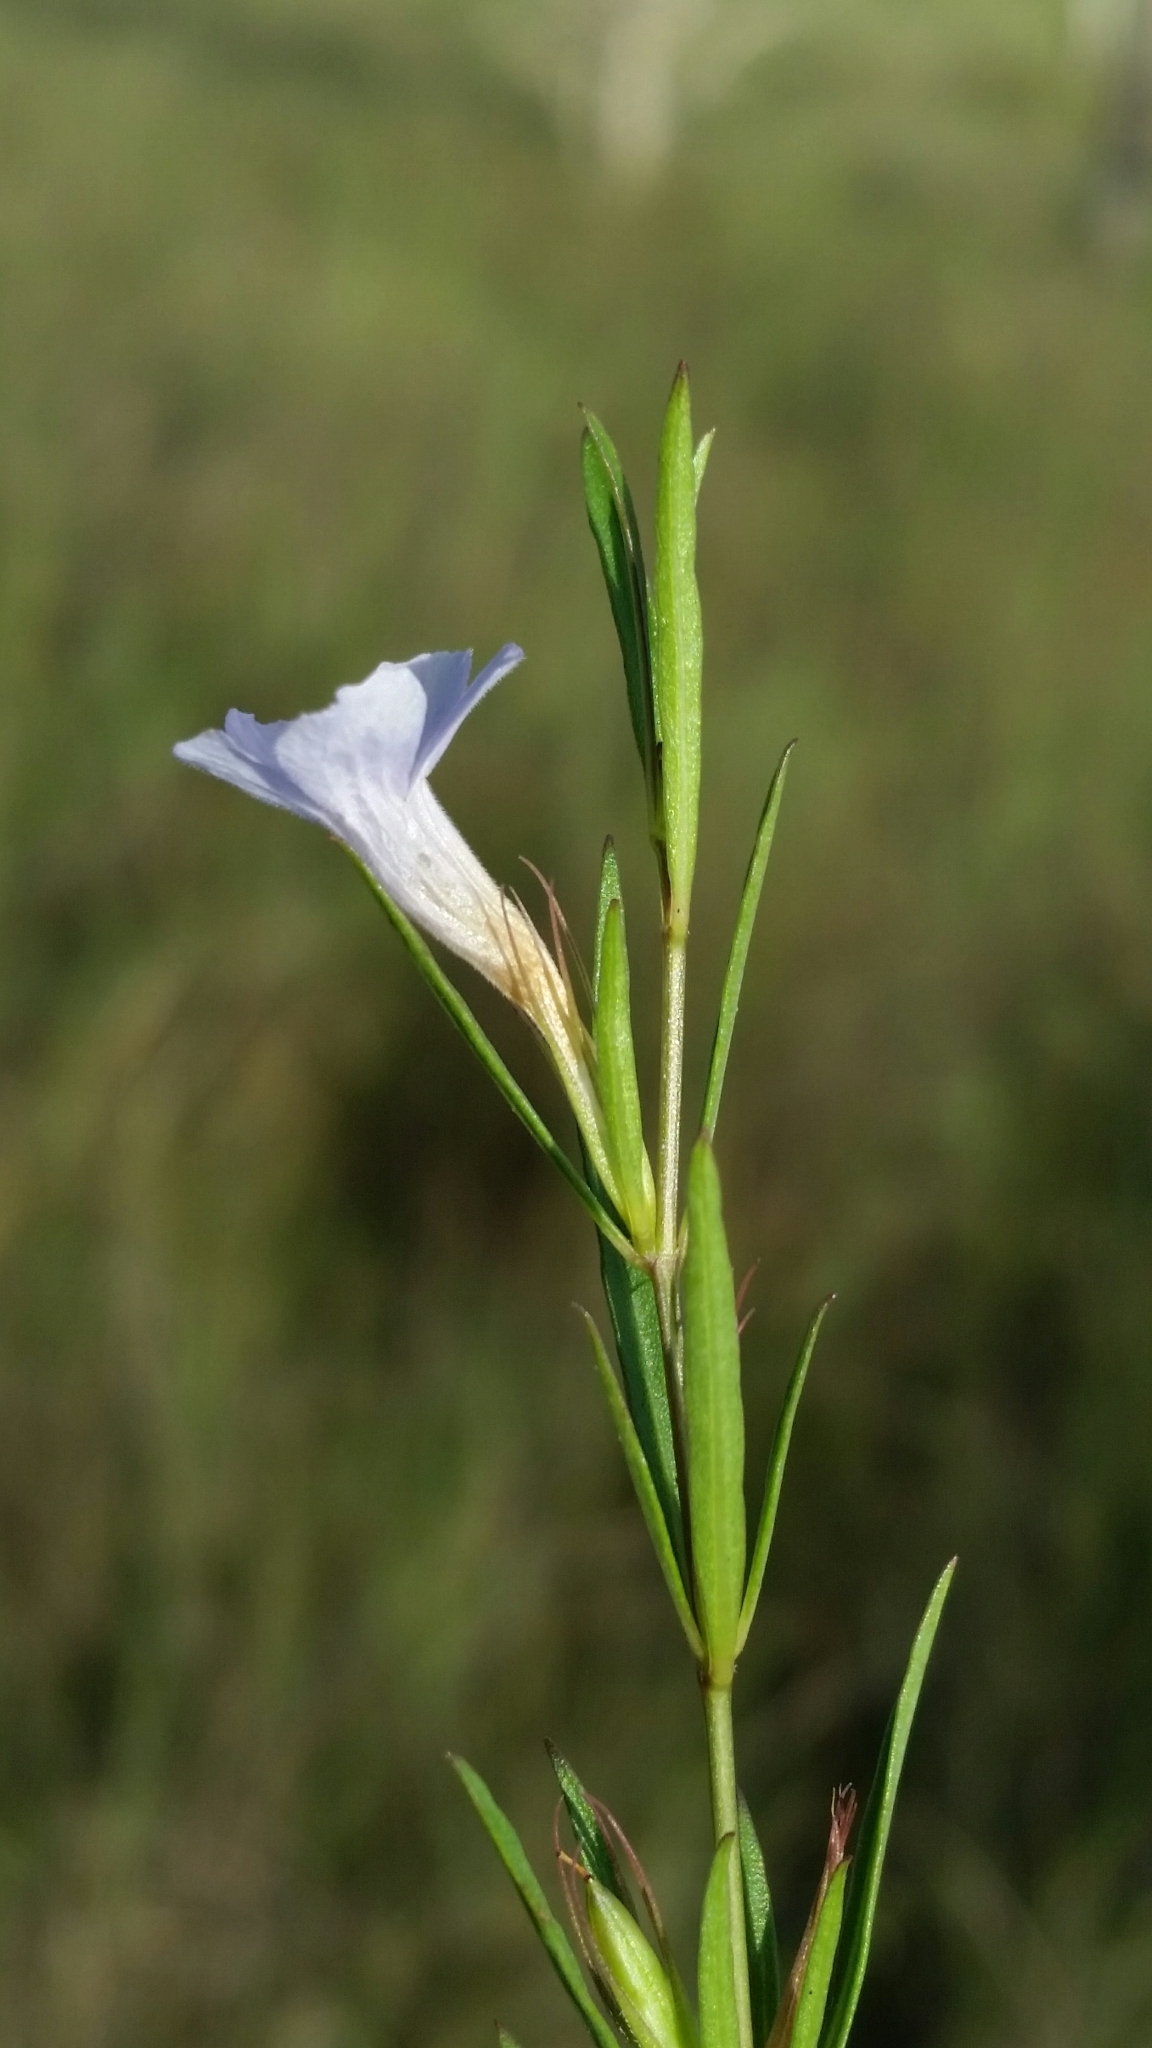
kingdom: Plantae
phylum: Tracheophyta
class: Magnoliopsida
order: Lamiales
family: Acanthaceae
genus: Dyschoriste
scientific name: Dyschoriste angusta
